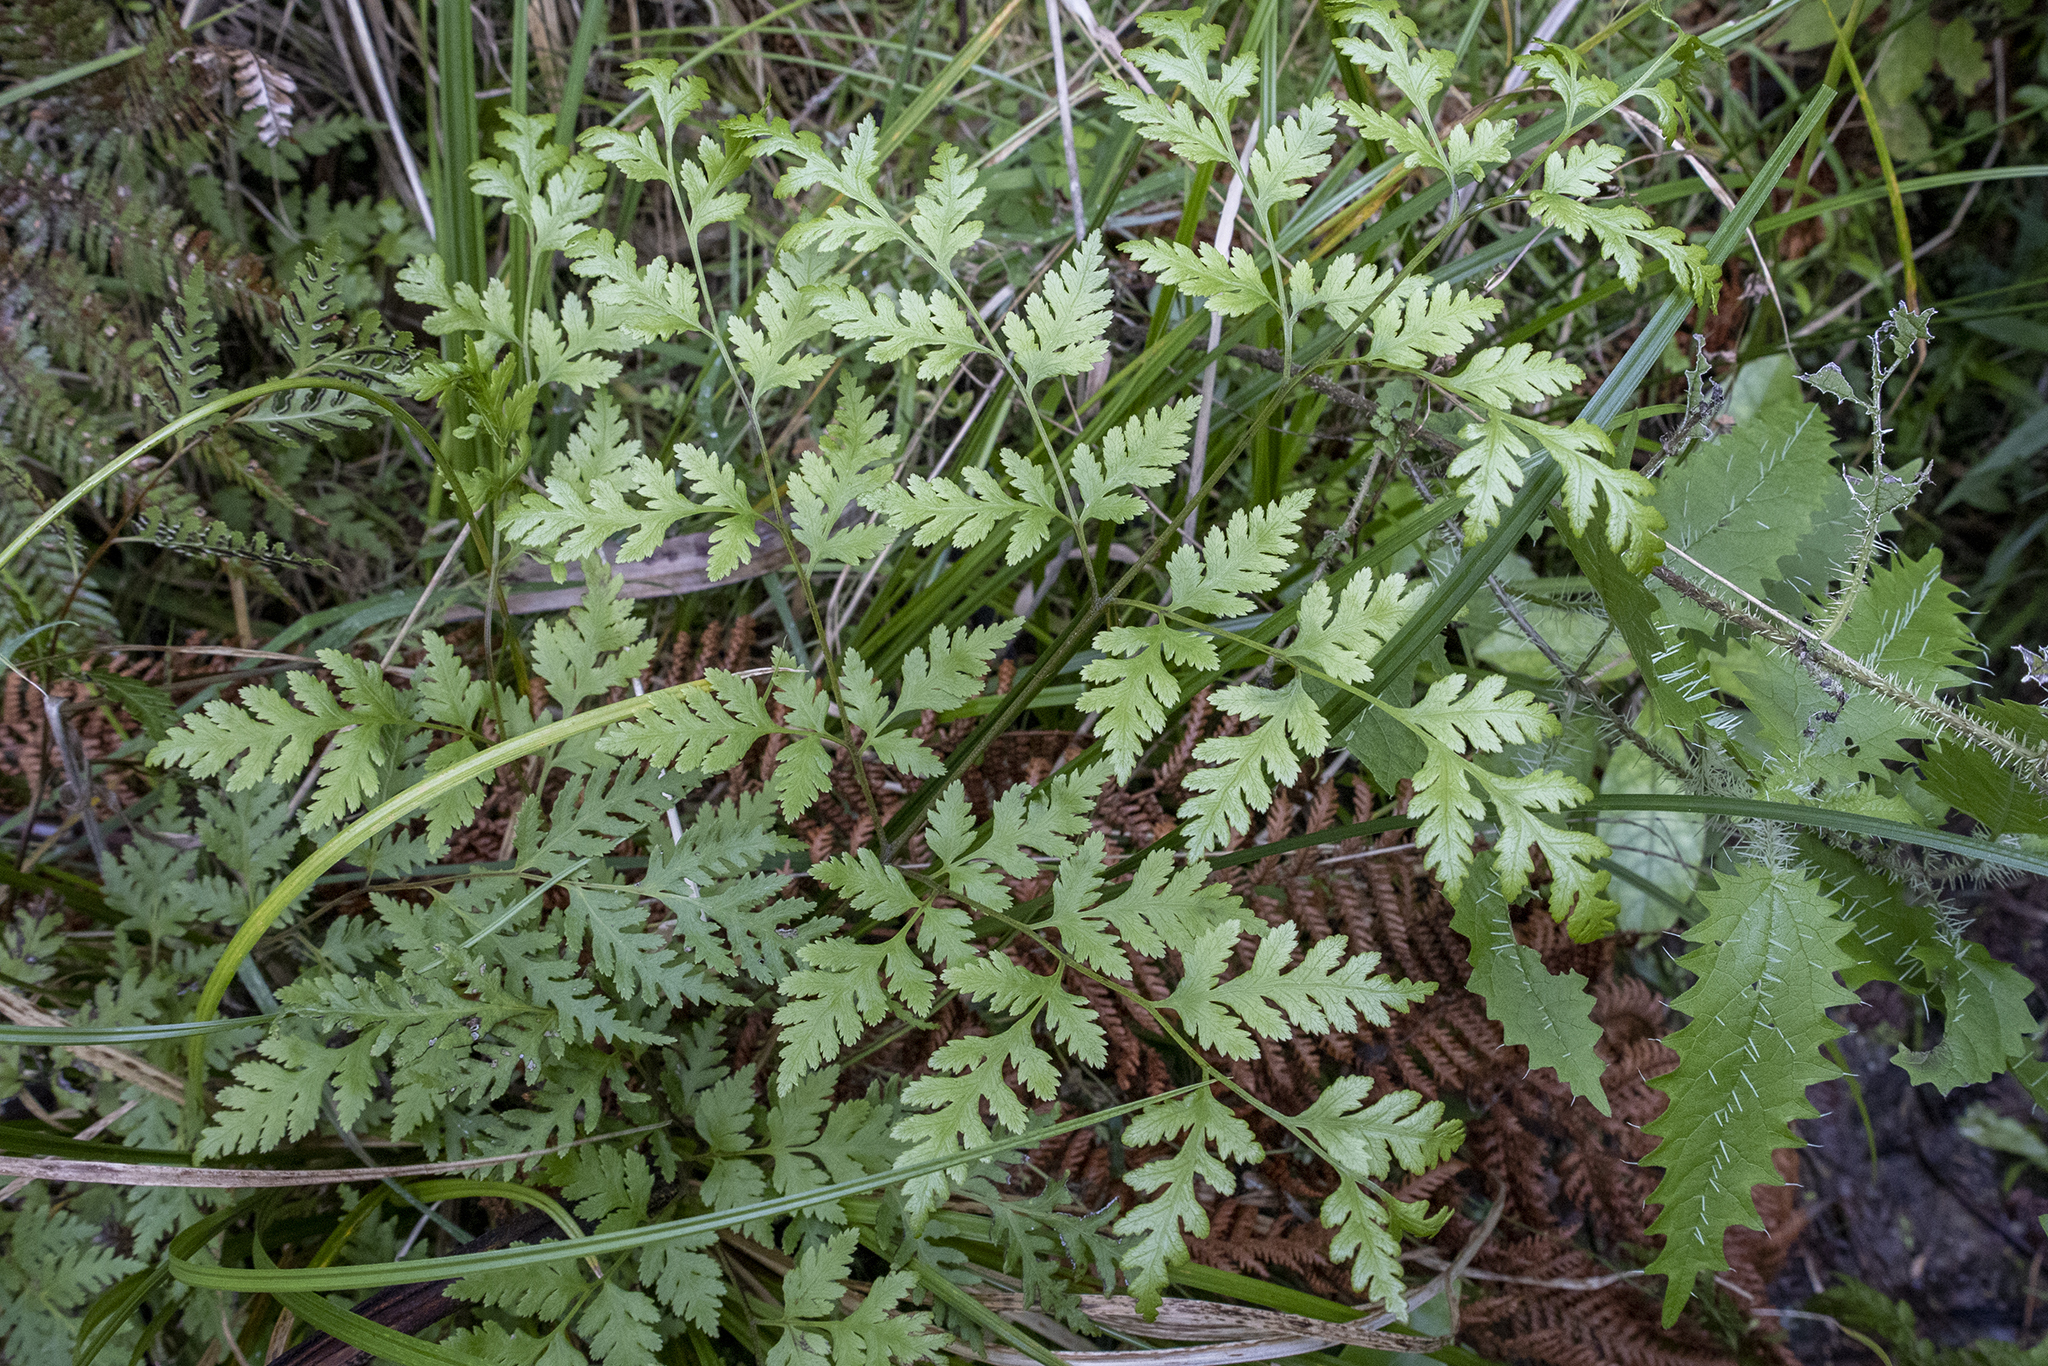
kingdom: Plantae
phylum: Tracheophyta
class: Polypodiopsida
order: Polypodiales
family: Pteridaceae
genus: Pteris
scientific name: Pteris macilenta
